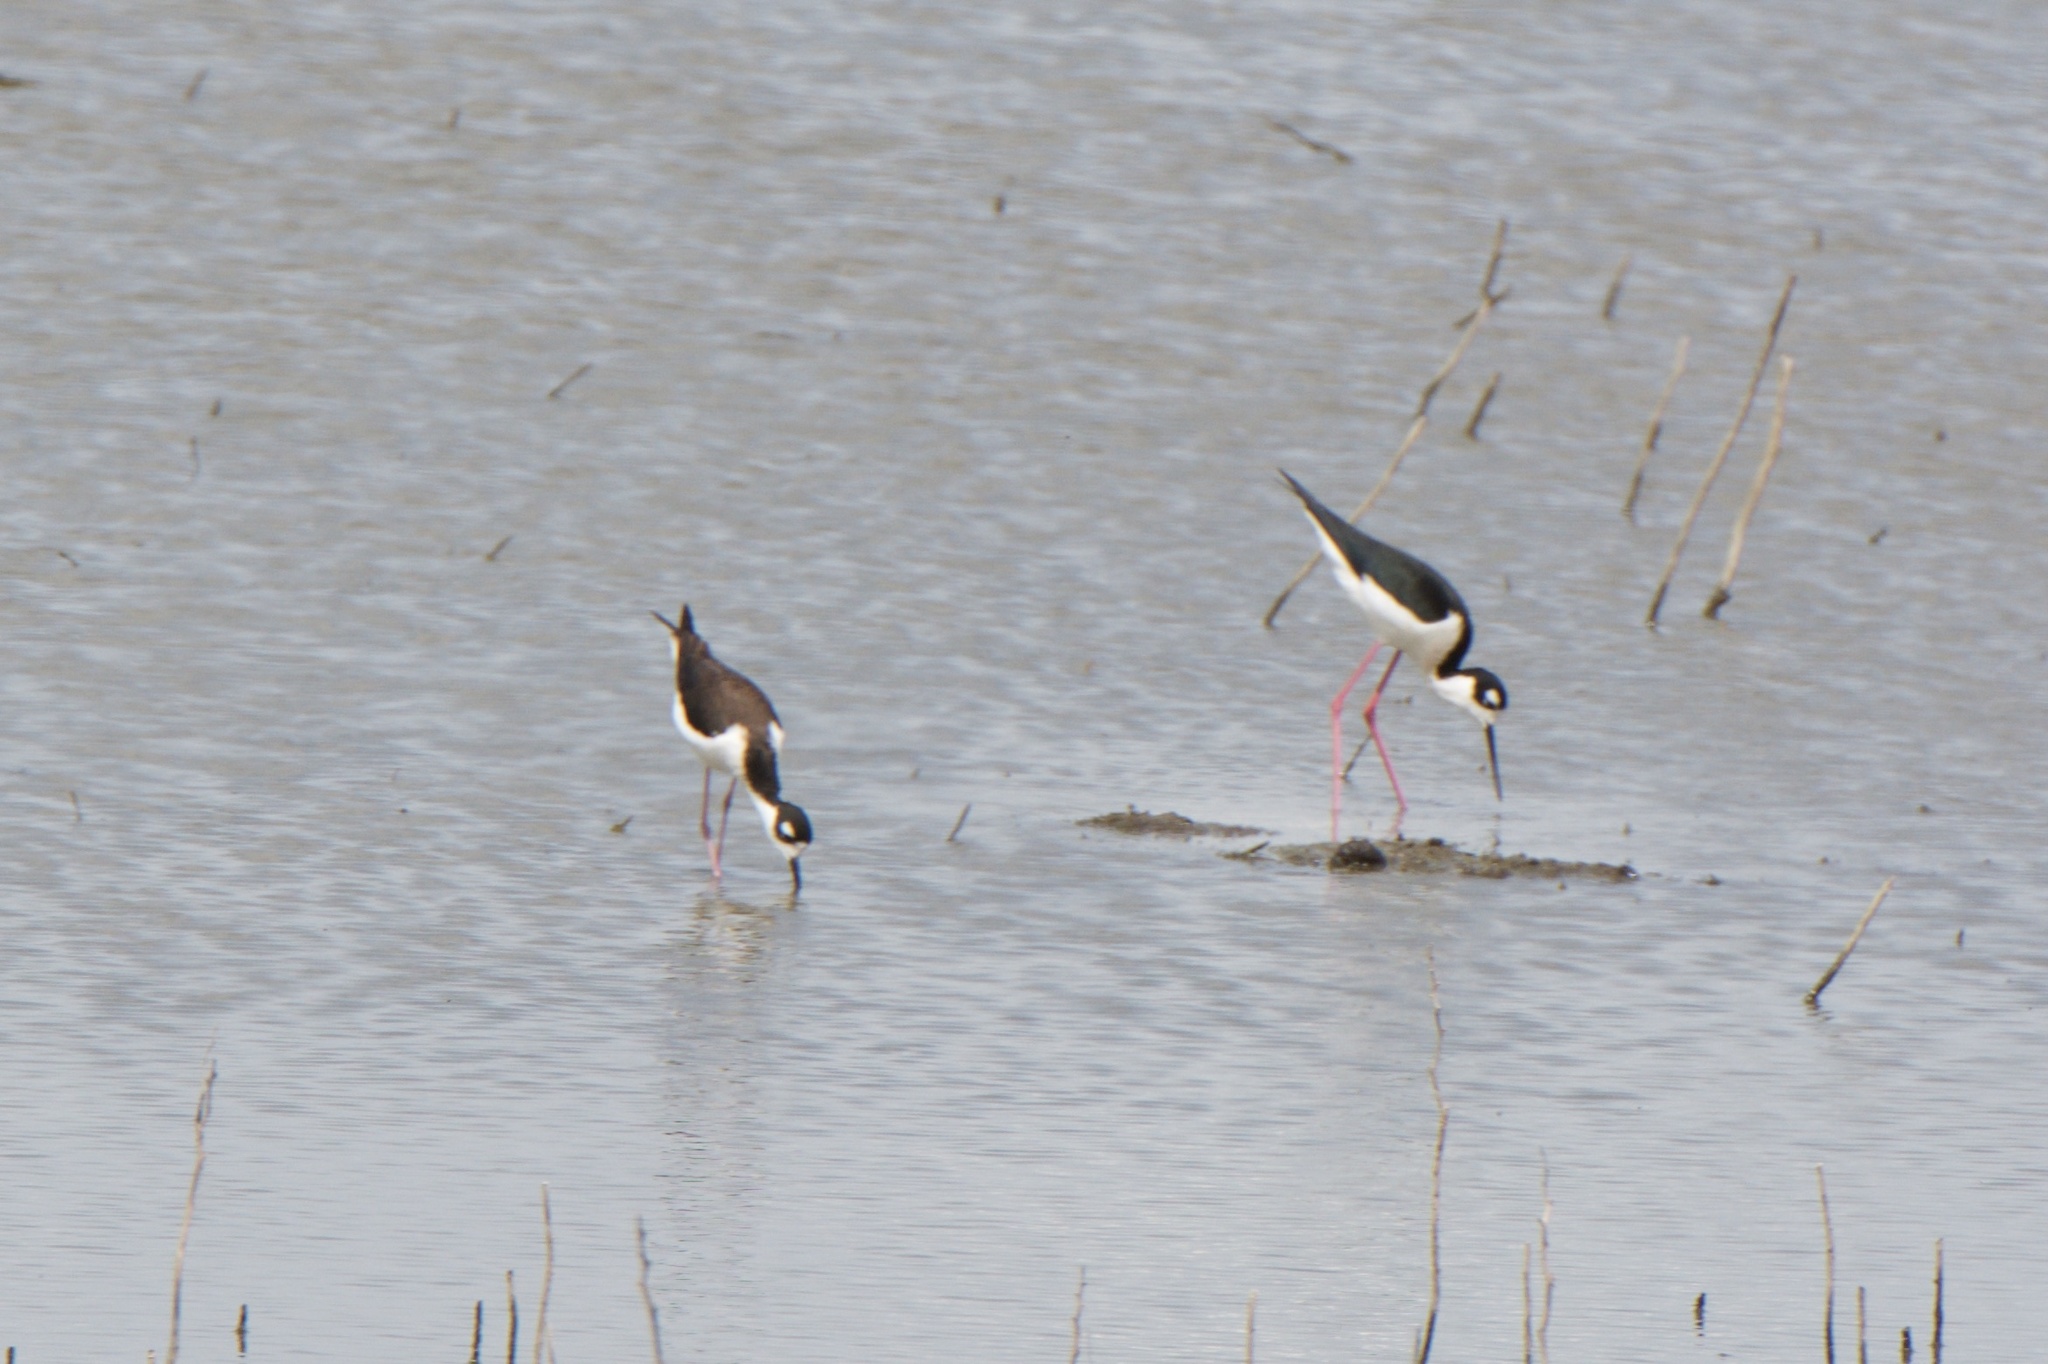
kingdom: Animalia
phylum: Chordata
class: Aves
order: Charadriiformes
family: Recurvirostridae
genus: Himantopus
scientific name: Himantopus mexicanus
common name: Black-necked stilt
